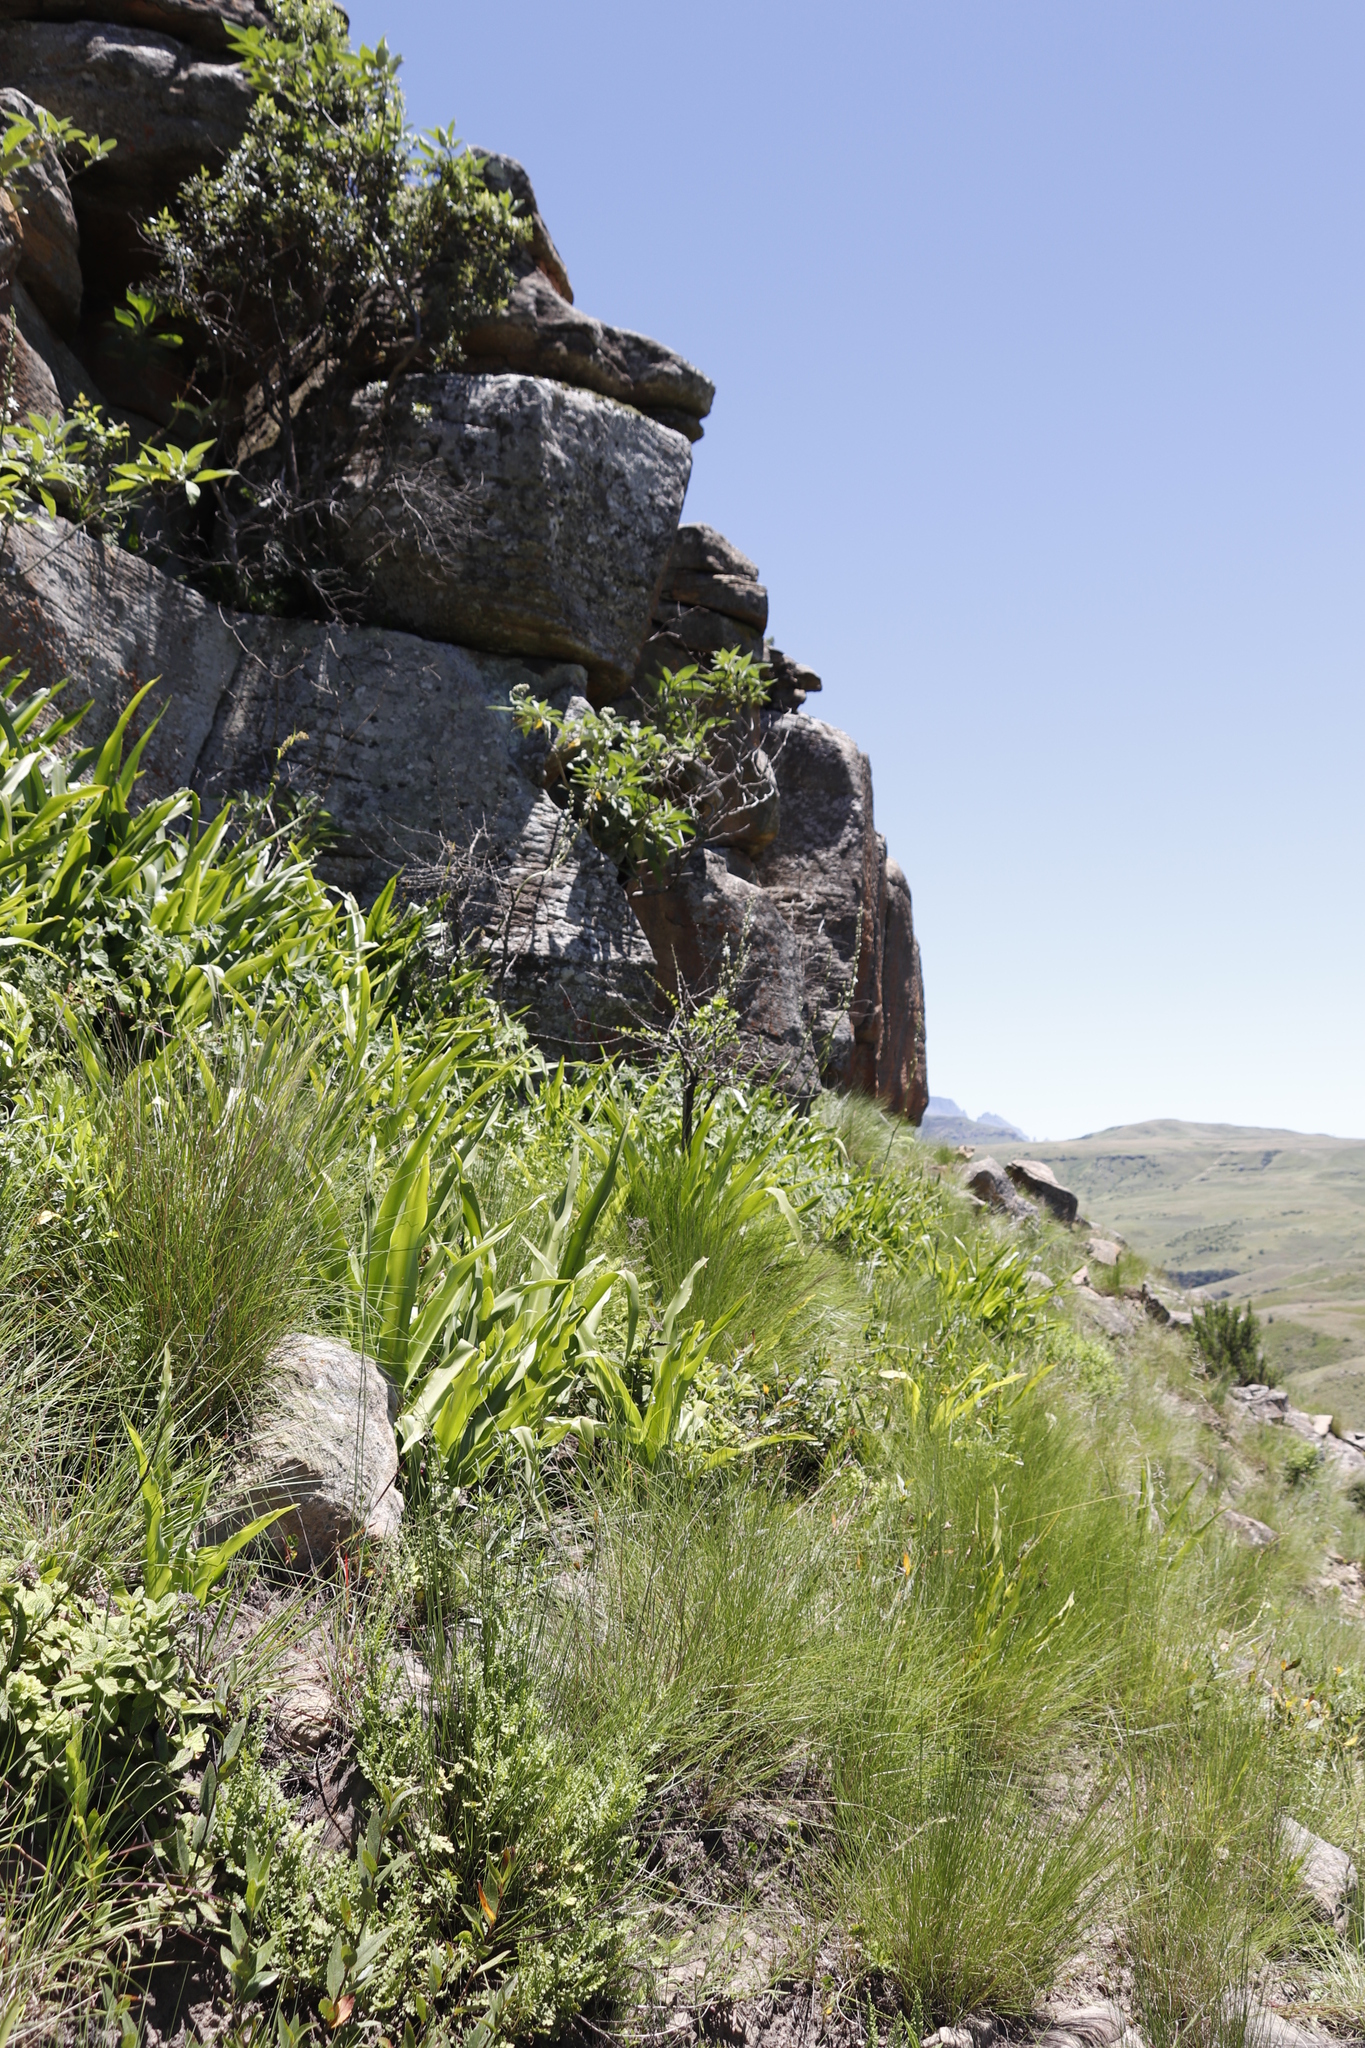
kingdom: Plantae
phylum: Tracheophyta
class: Liliopsida
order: Asparagales
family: Asparagaceae
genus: Chlorophytum
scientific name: Chlorophytum krookianum
